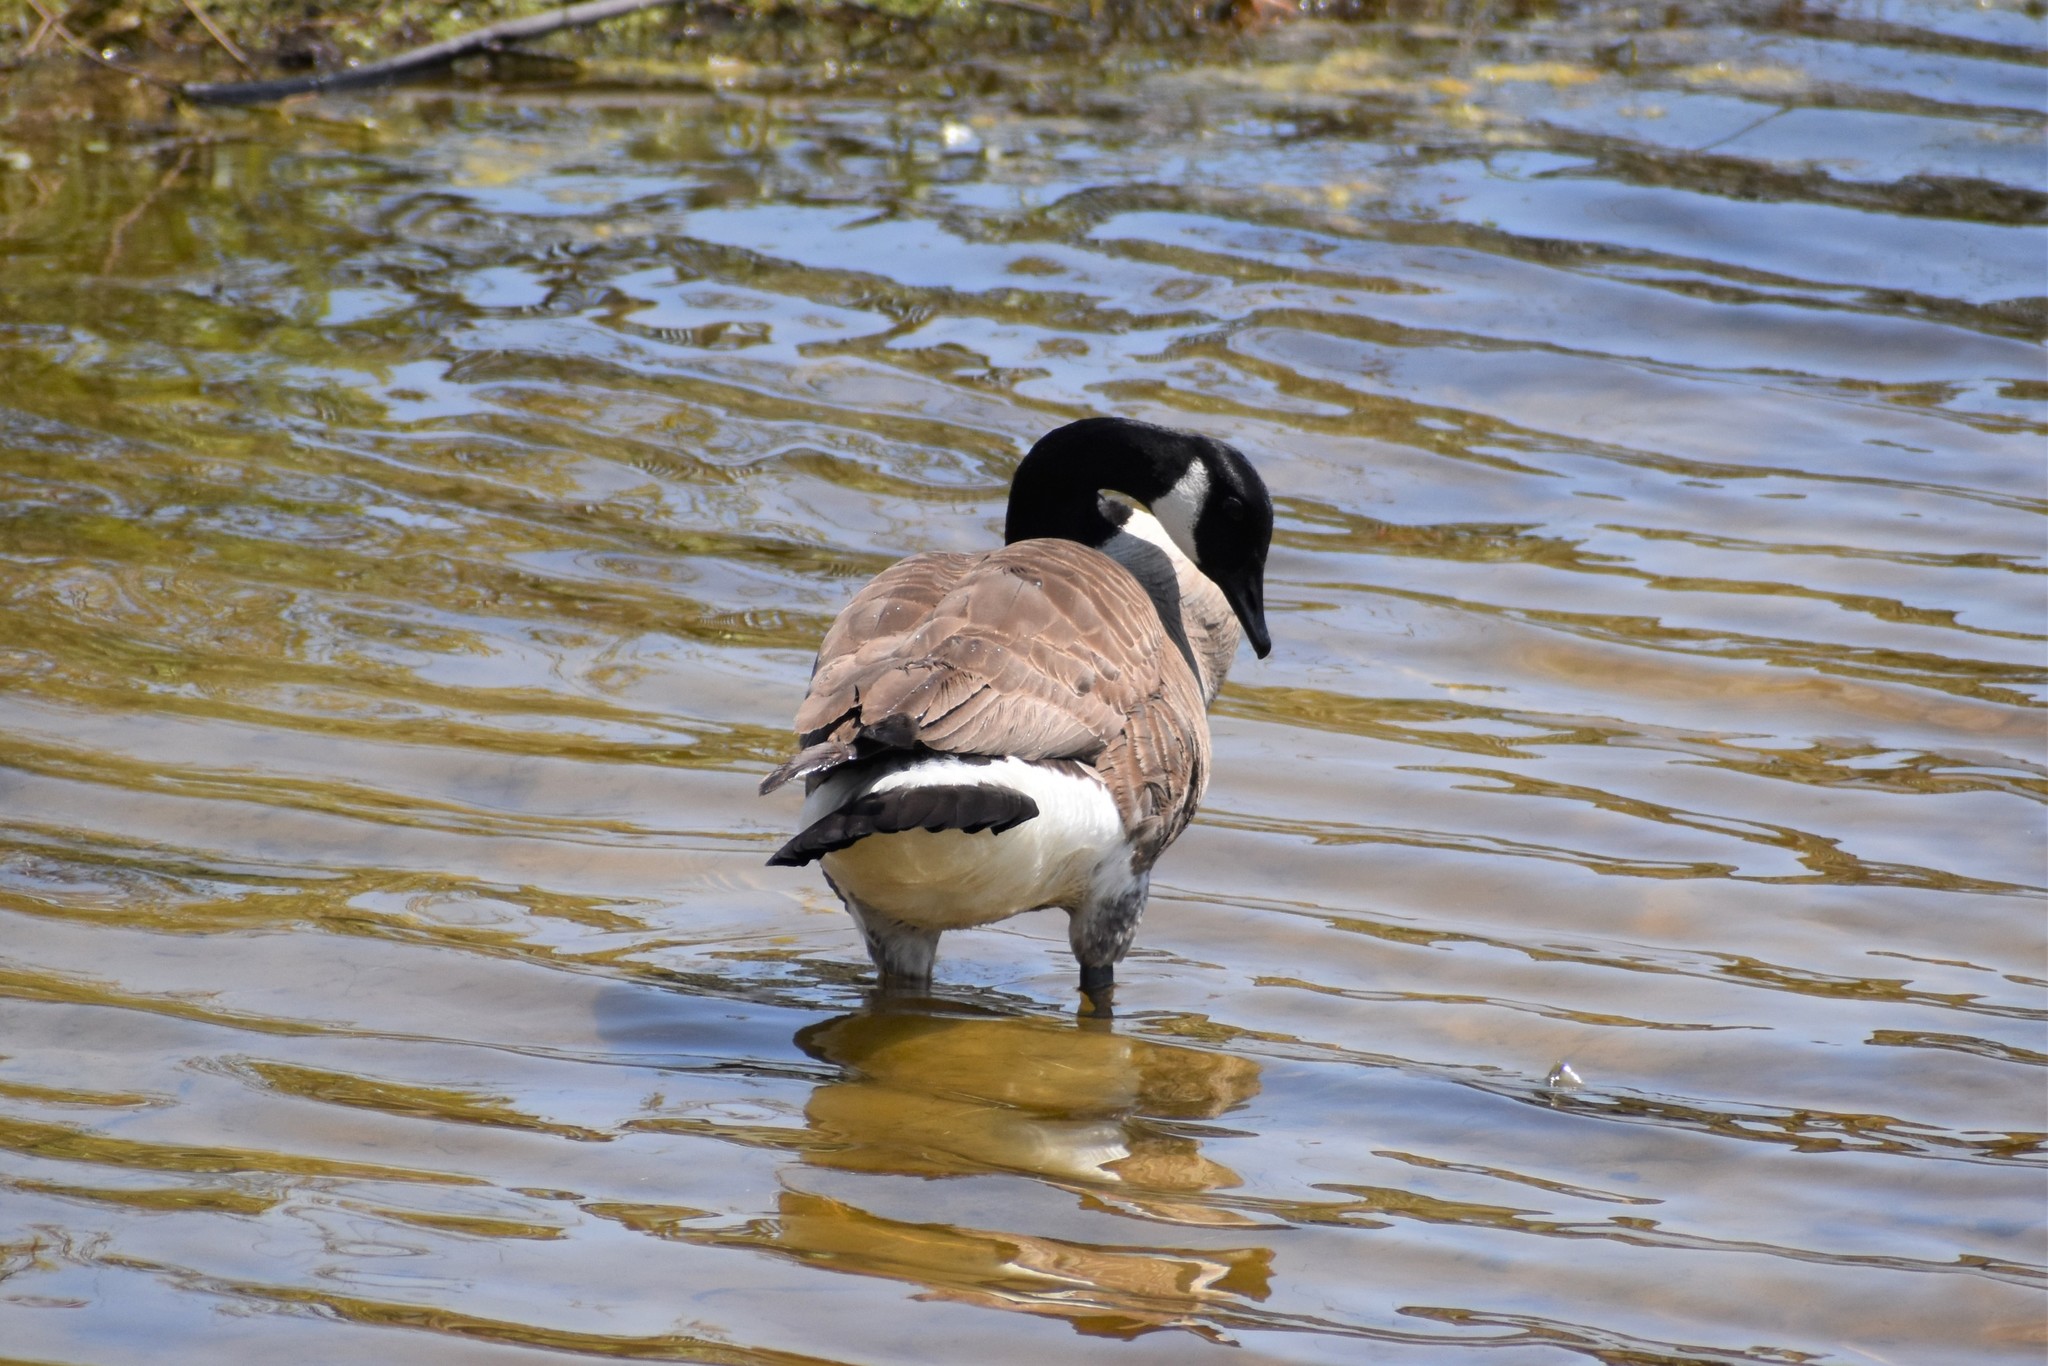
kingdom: Animalia
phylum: Chordata
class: Aves
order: Anseriformes
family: Anatidae
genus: Branta
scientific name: Branta canadensis
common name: Canada goose
